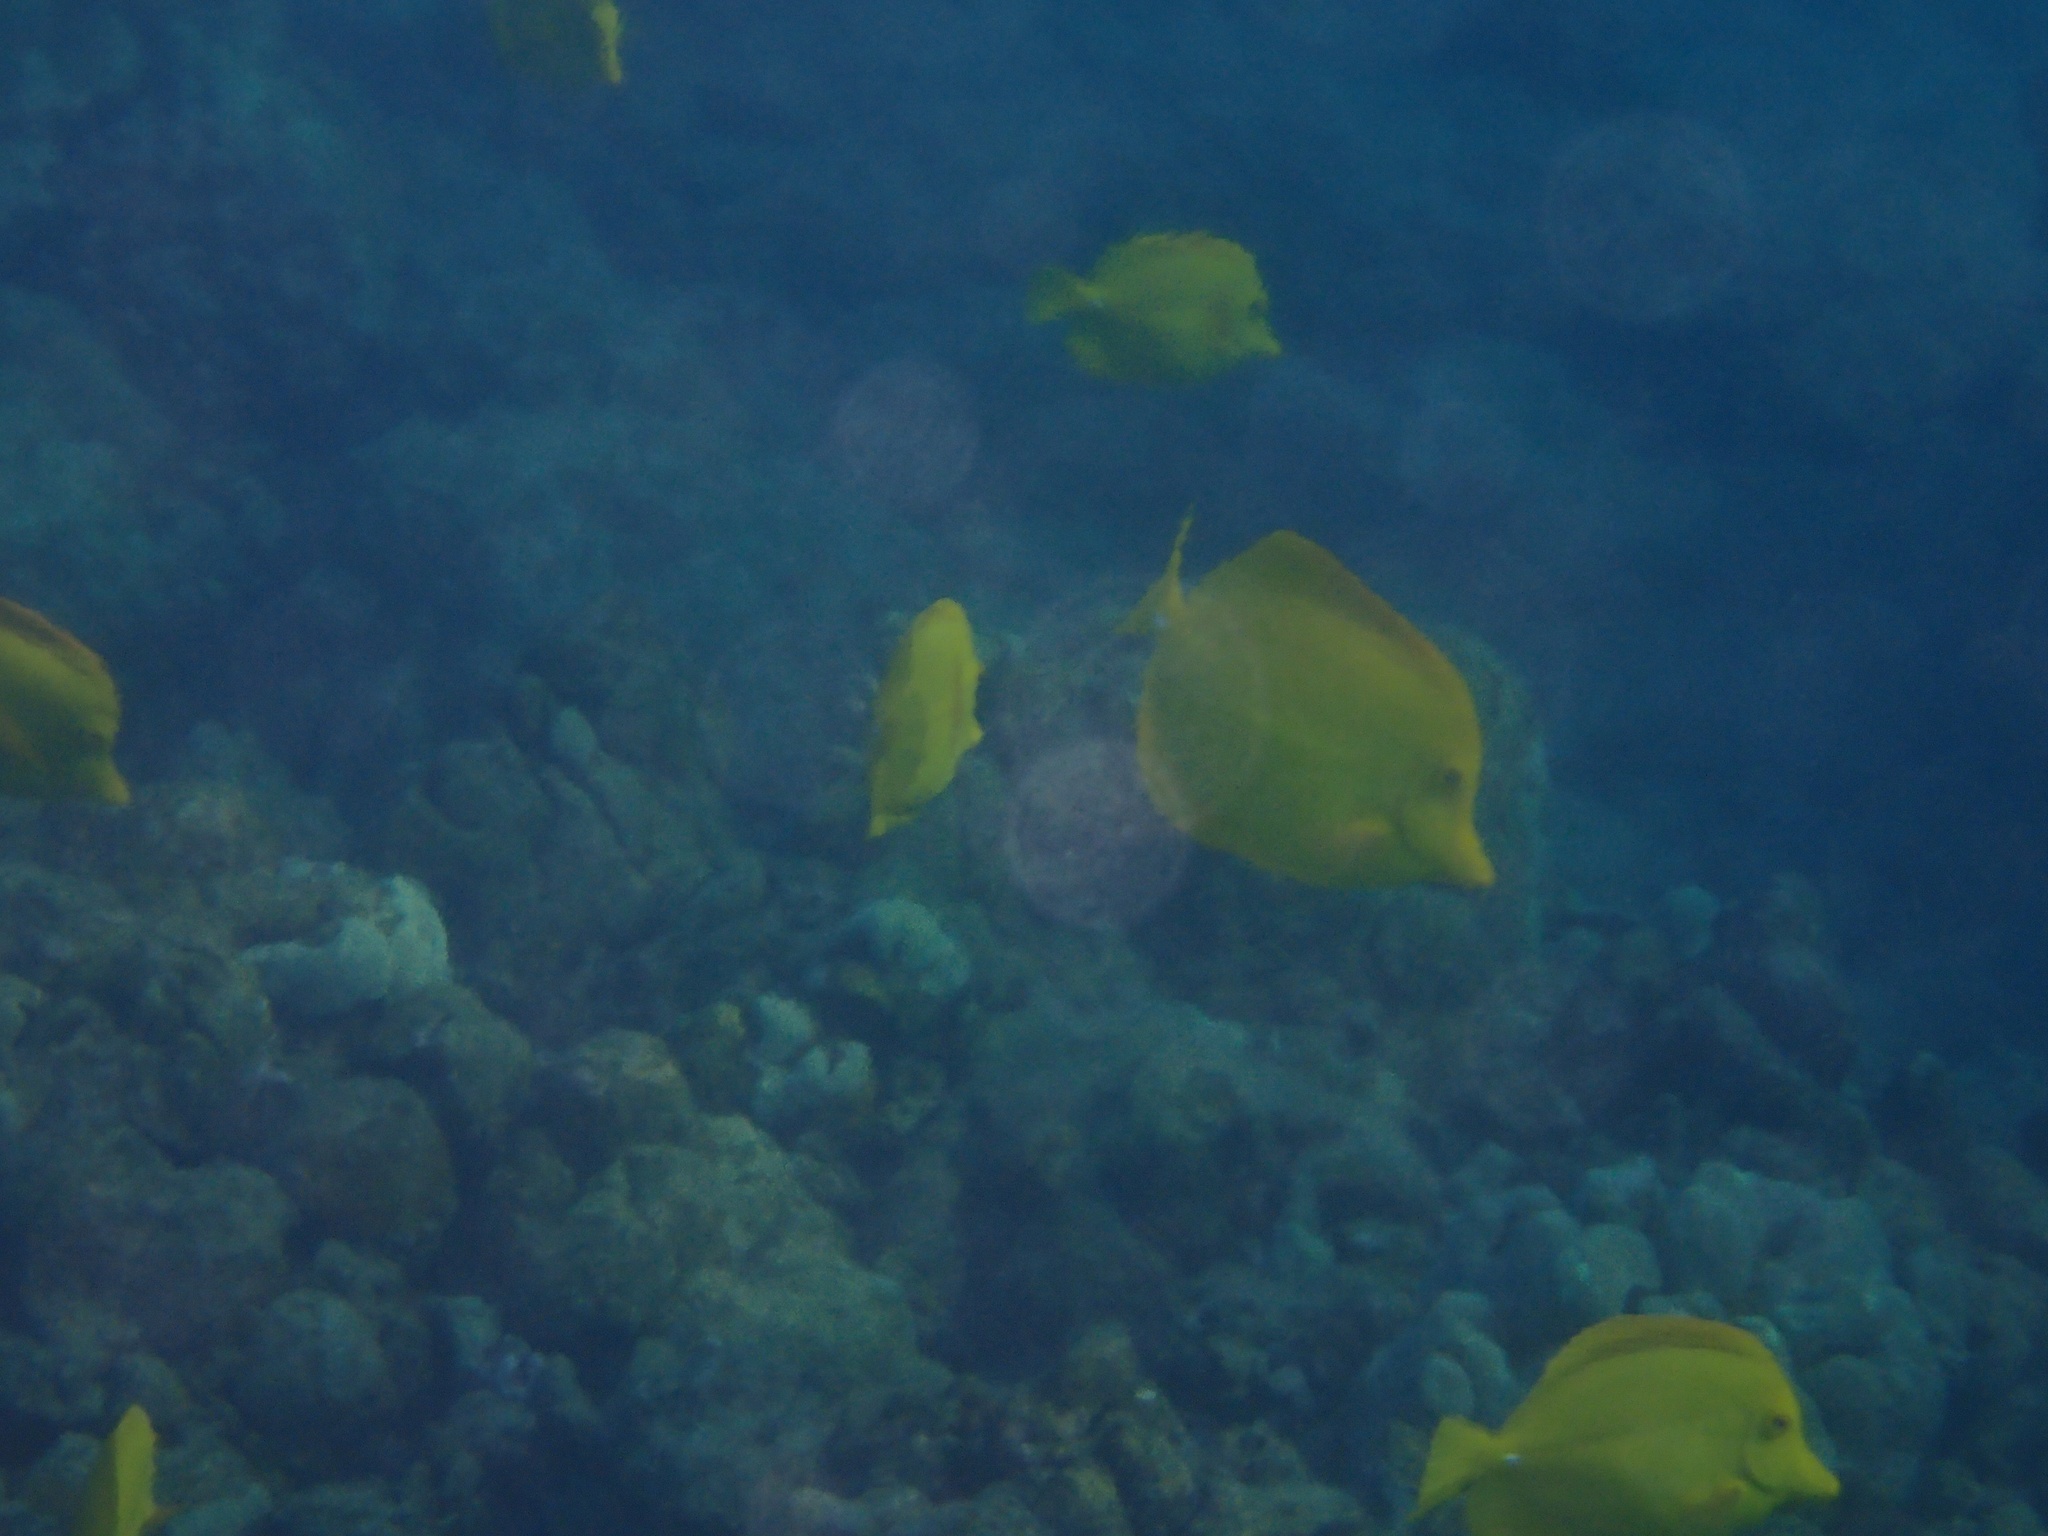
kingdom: Animalia
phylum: Chordata
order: Perciformes
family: Acanthuridae
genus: Zebrasoma
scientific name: Zebrasoma flavescens
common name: Yellow tang
